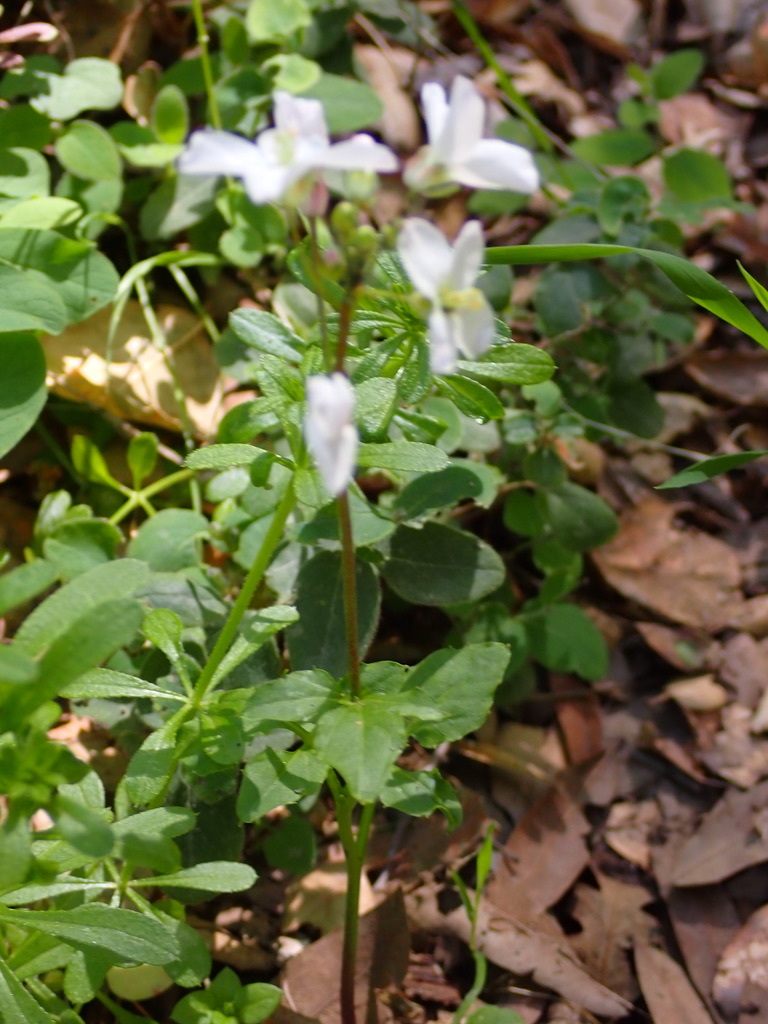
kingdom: Plantae
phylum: Tracheophyta
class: Magnoliopsida
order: Brassicales
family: Brassicaceae
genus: Cardamine
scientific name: Cardamine californica
